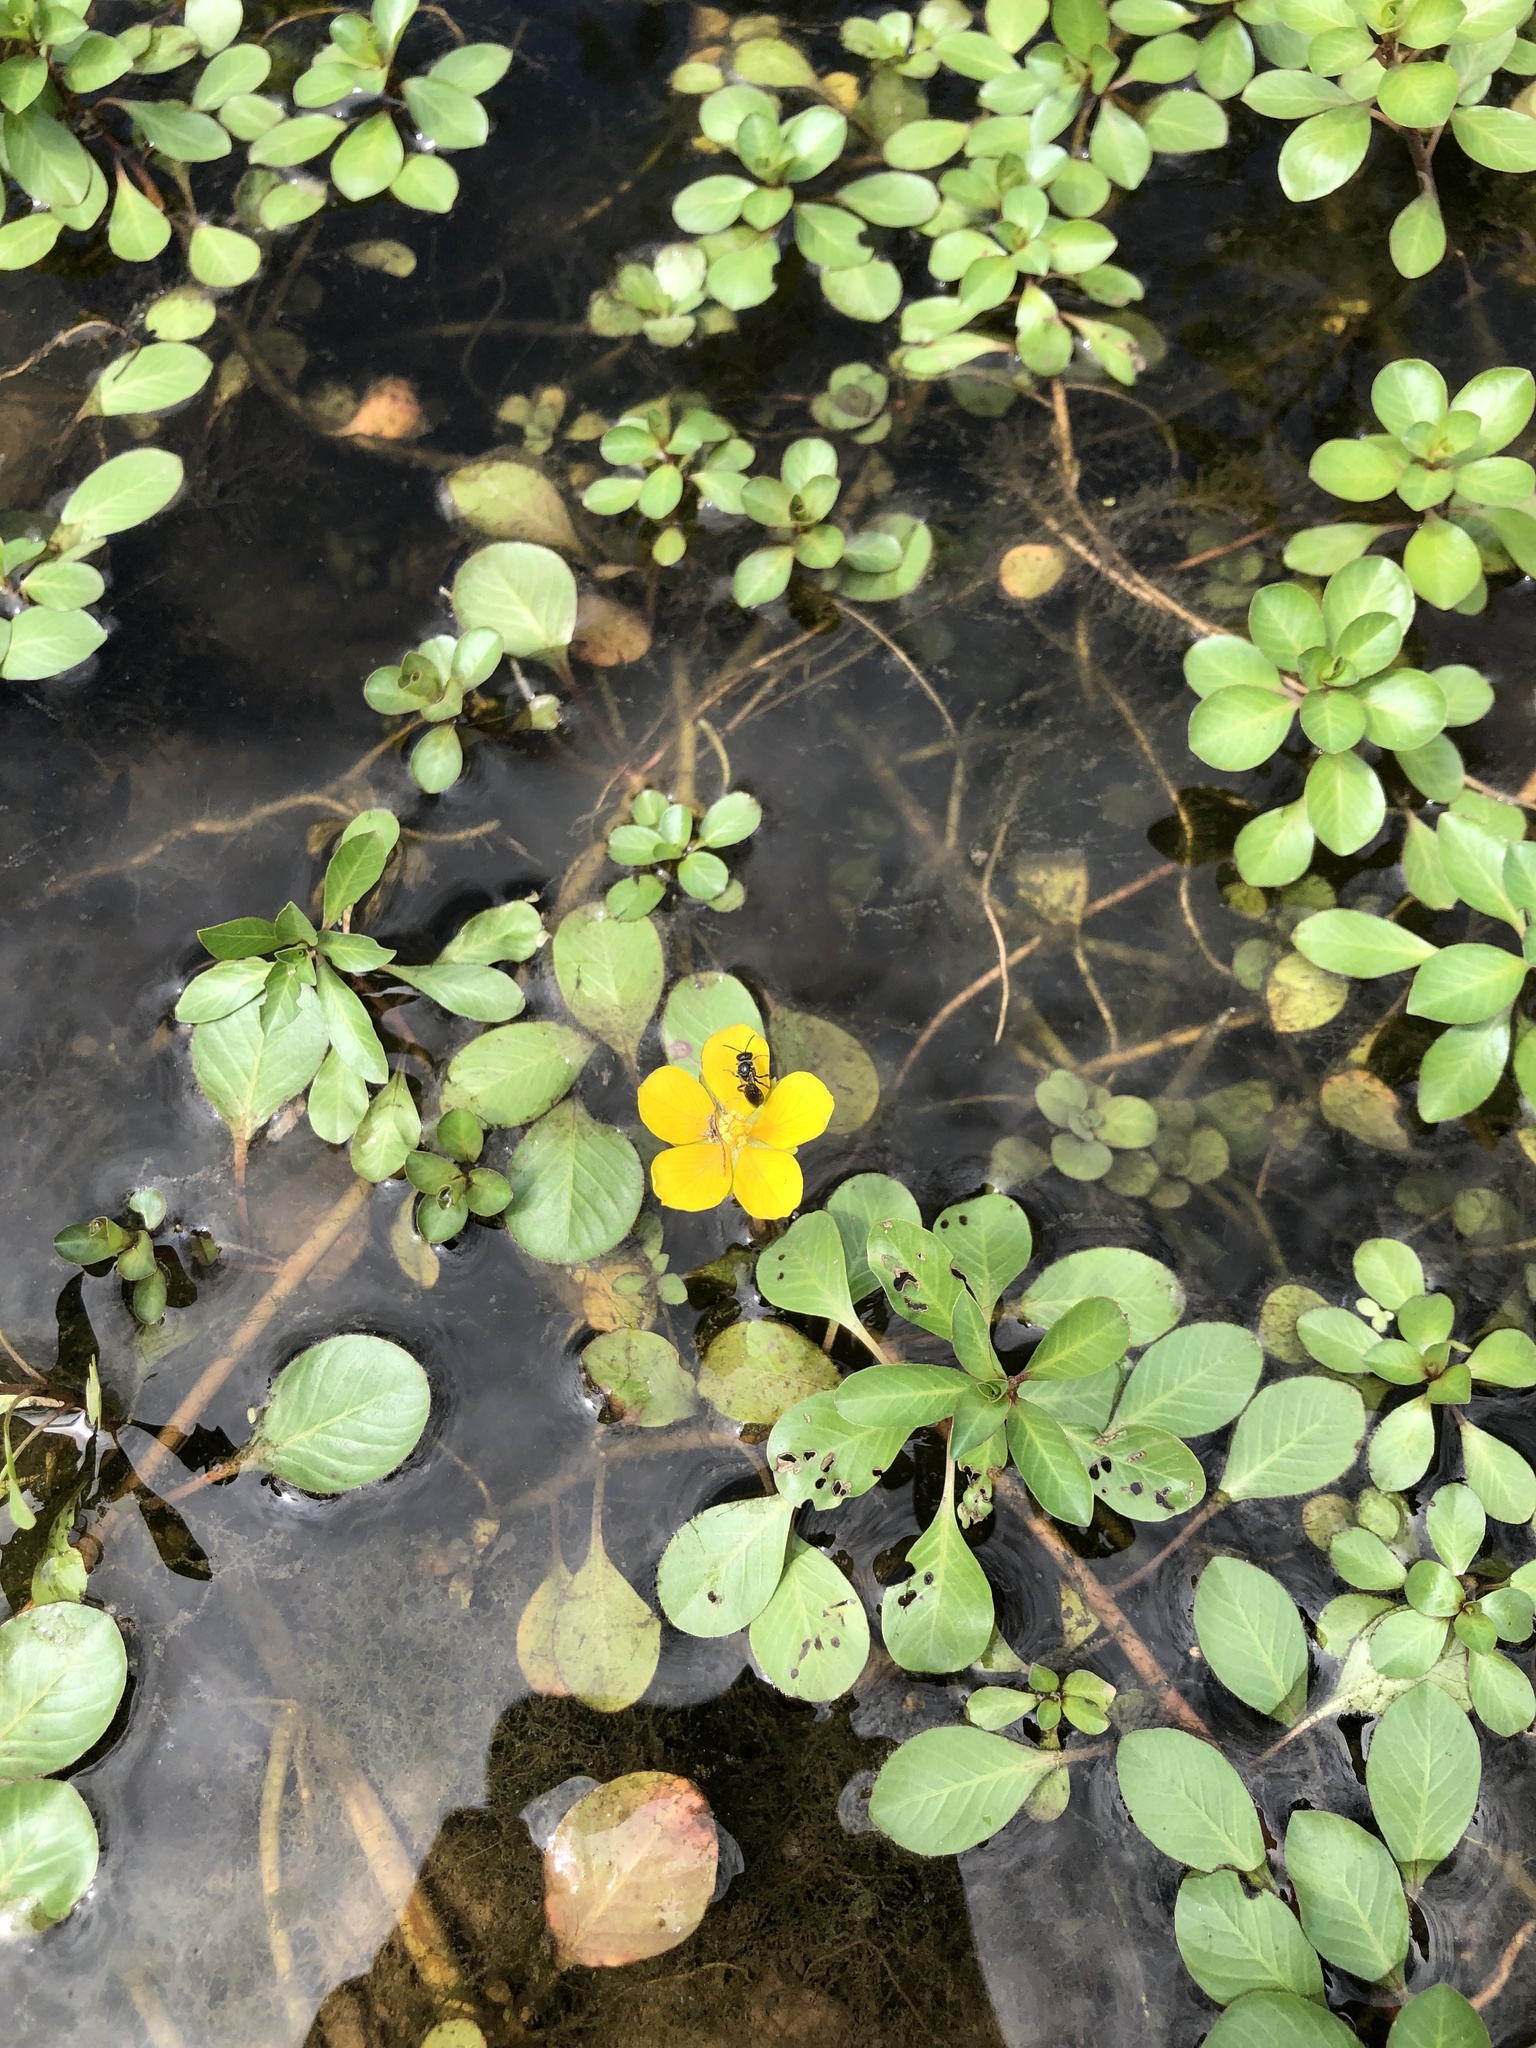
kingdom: Plantae
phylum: Tracheophyta
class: Magnoliopsida
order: Myrtales
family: Onagraceae
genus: Ludwigia
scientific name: Ludwigia peploides
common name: Floating primrose-willow
